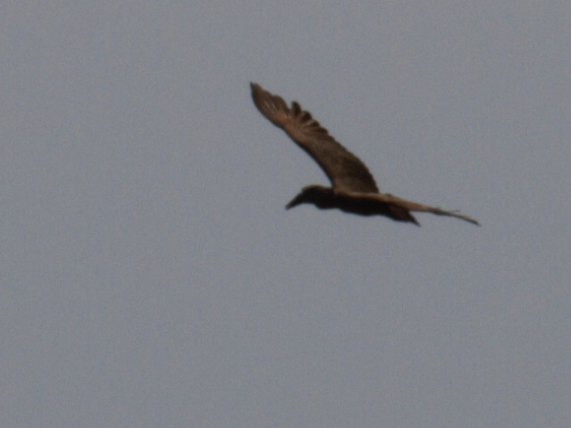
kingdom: Animalia
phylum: Chordata
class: Aves
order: Pelecaniformes
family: Scopidae
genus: Scopus
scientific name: Scopus umbretta
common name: Hamerkop
